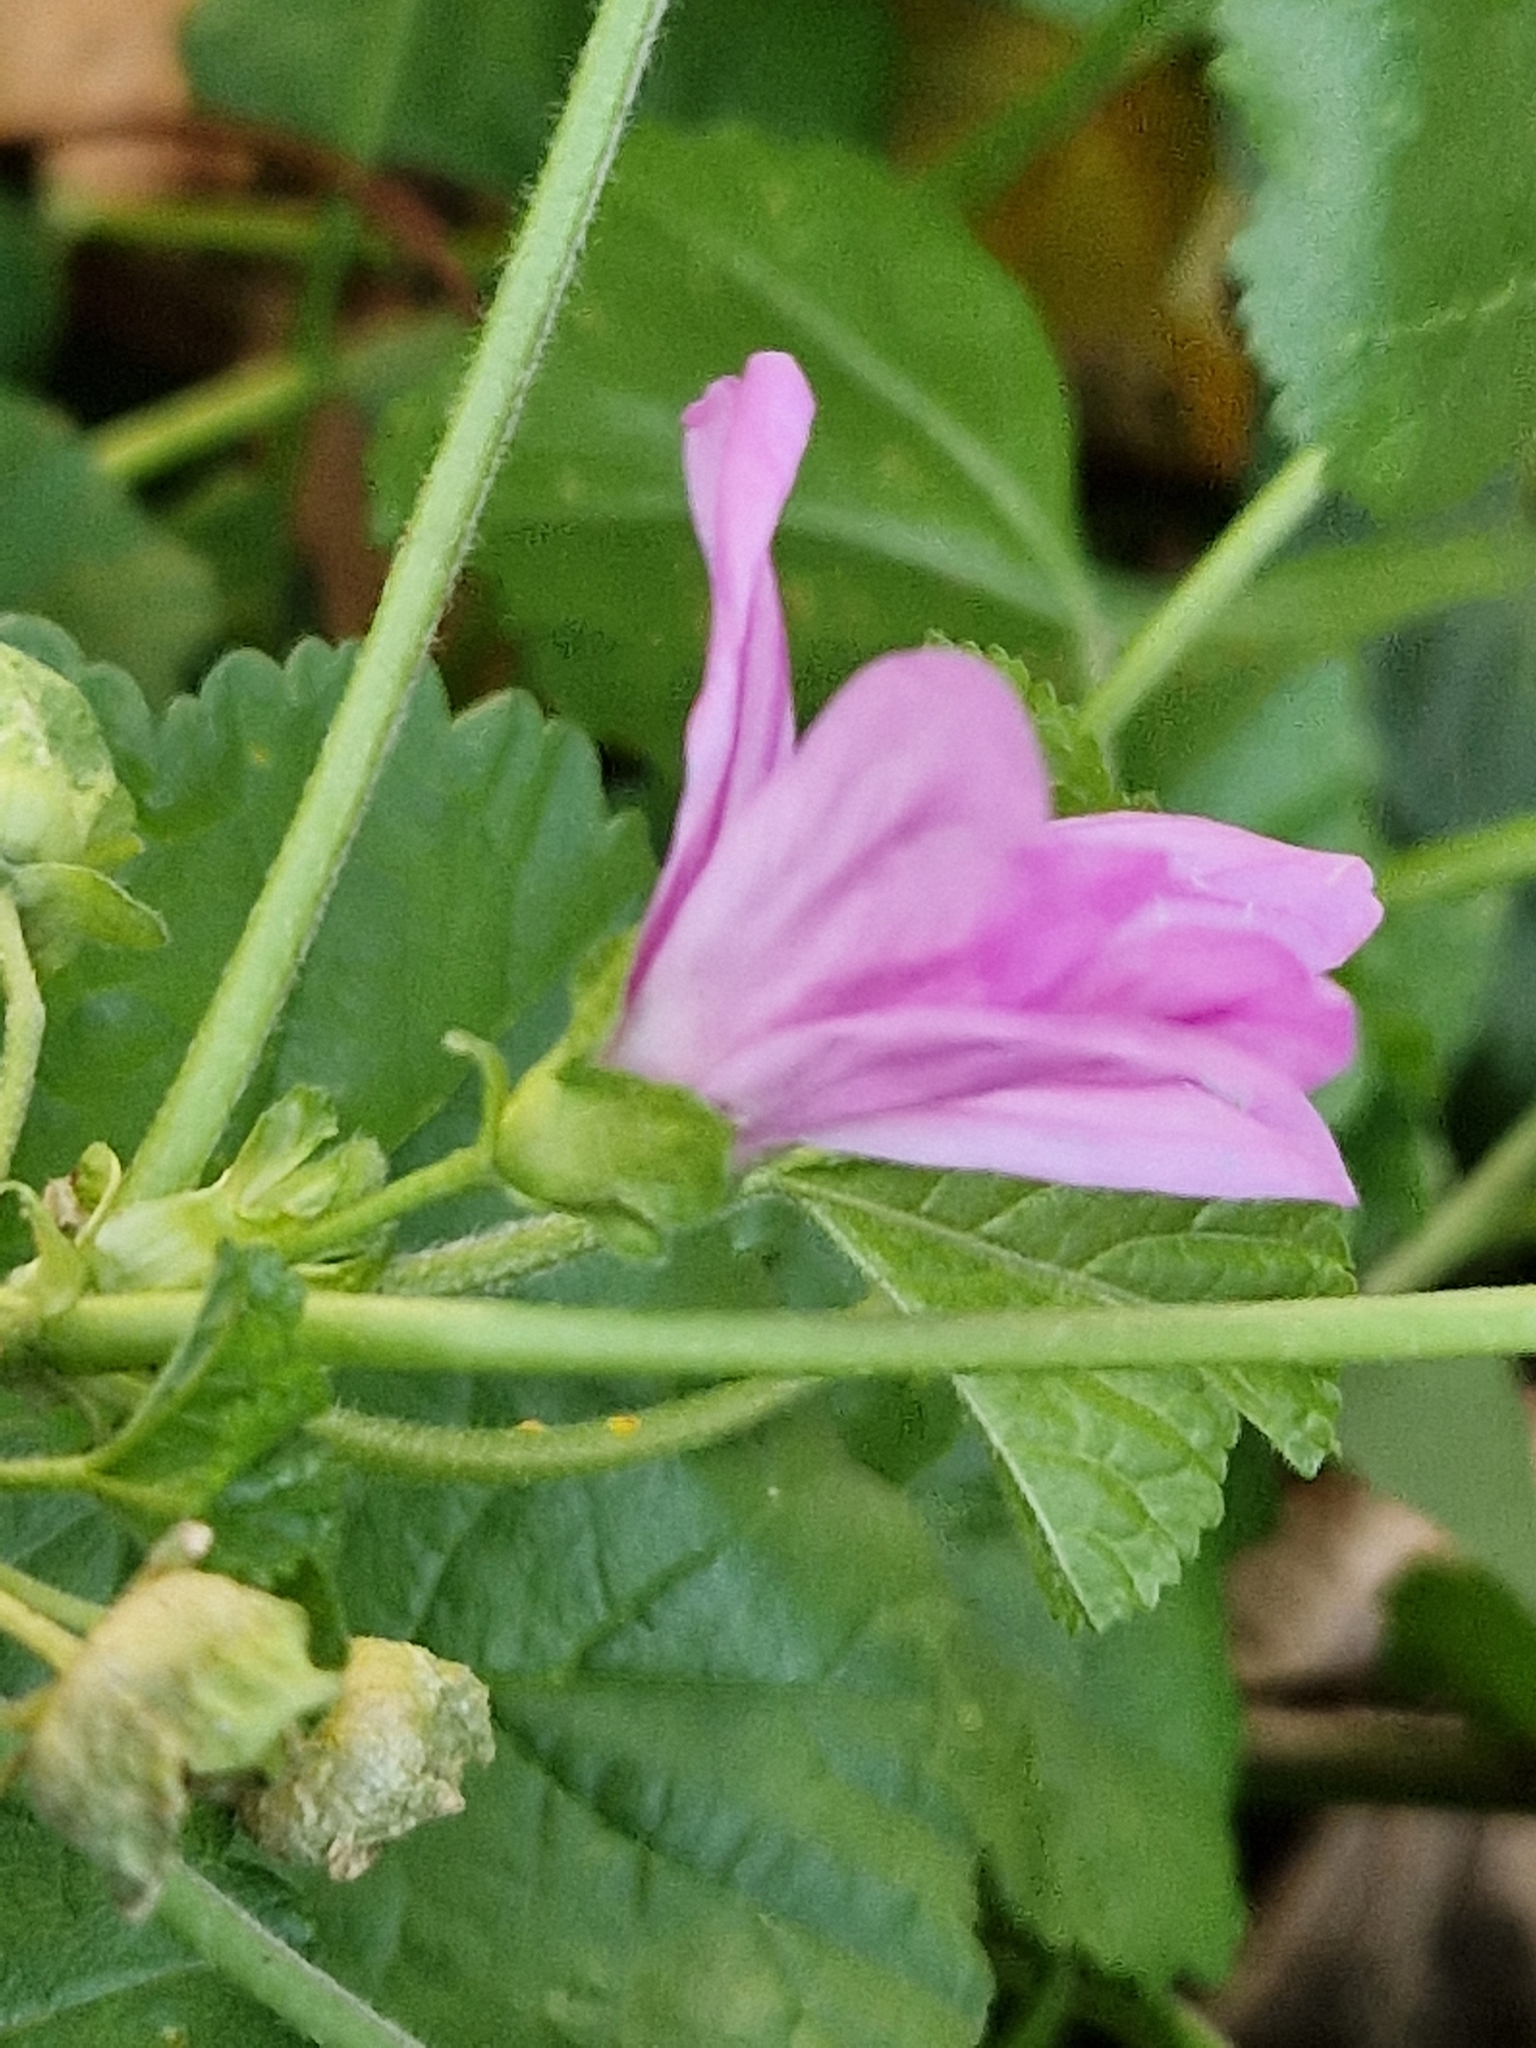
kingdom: Plantae
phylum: Tracheophyta
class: Magnoliopsida
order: Malvales
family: Malvaceae
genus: Malva
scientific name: Malva sylvestris
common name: Common mallow
